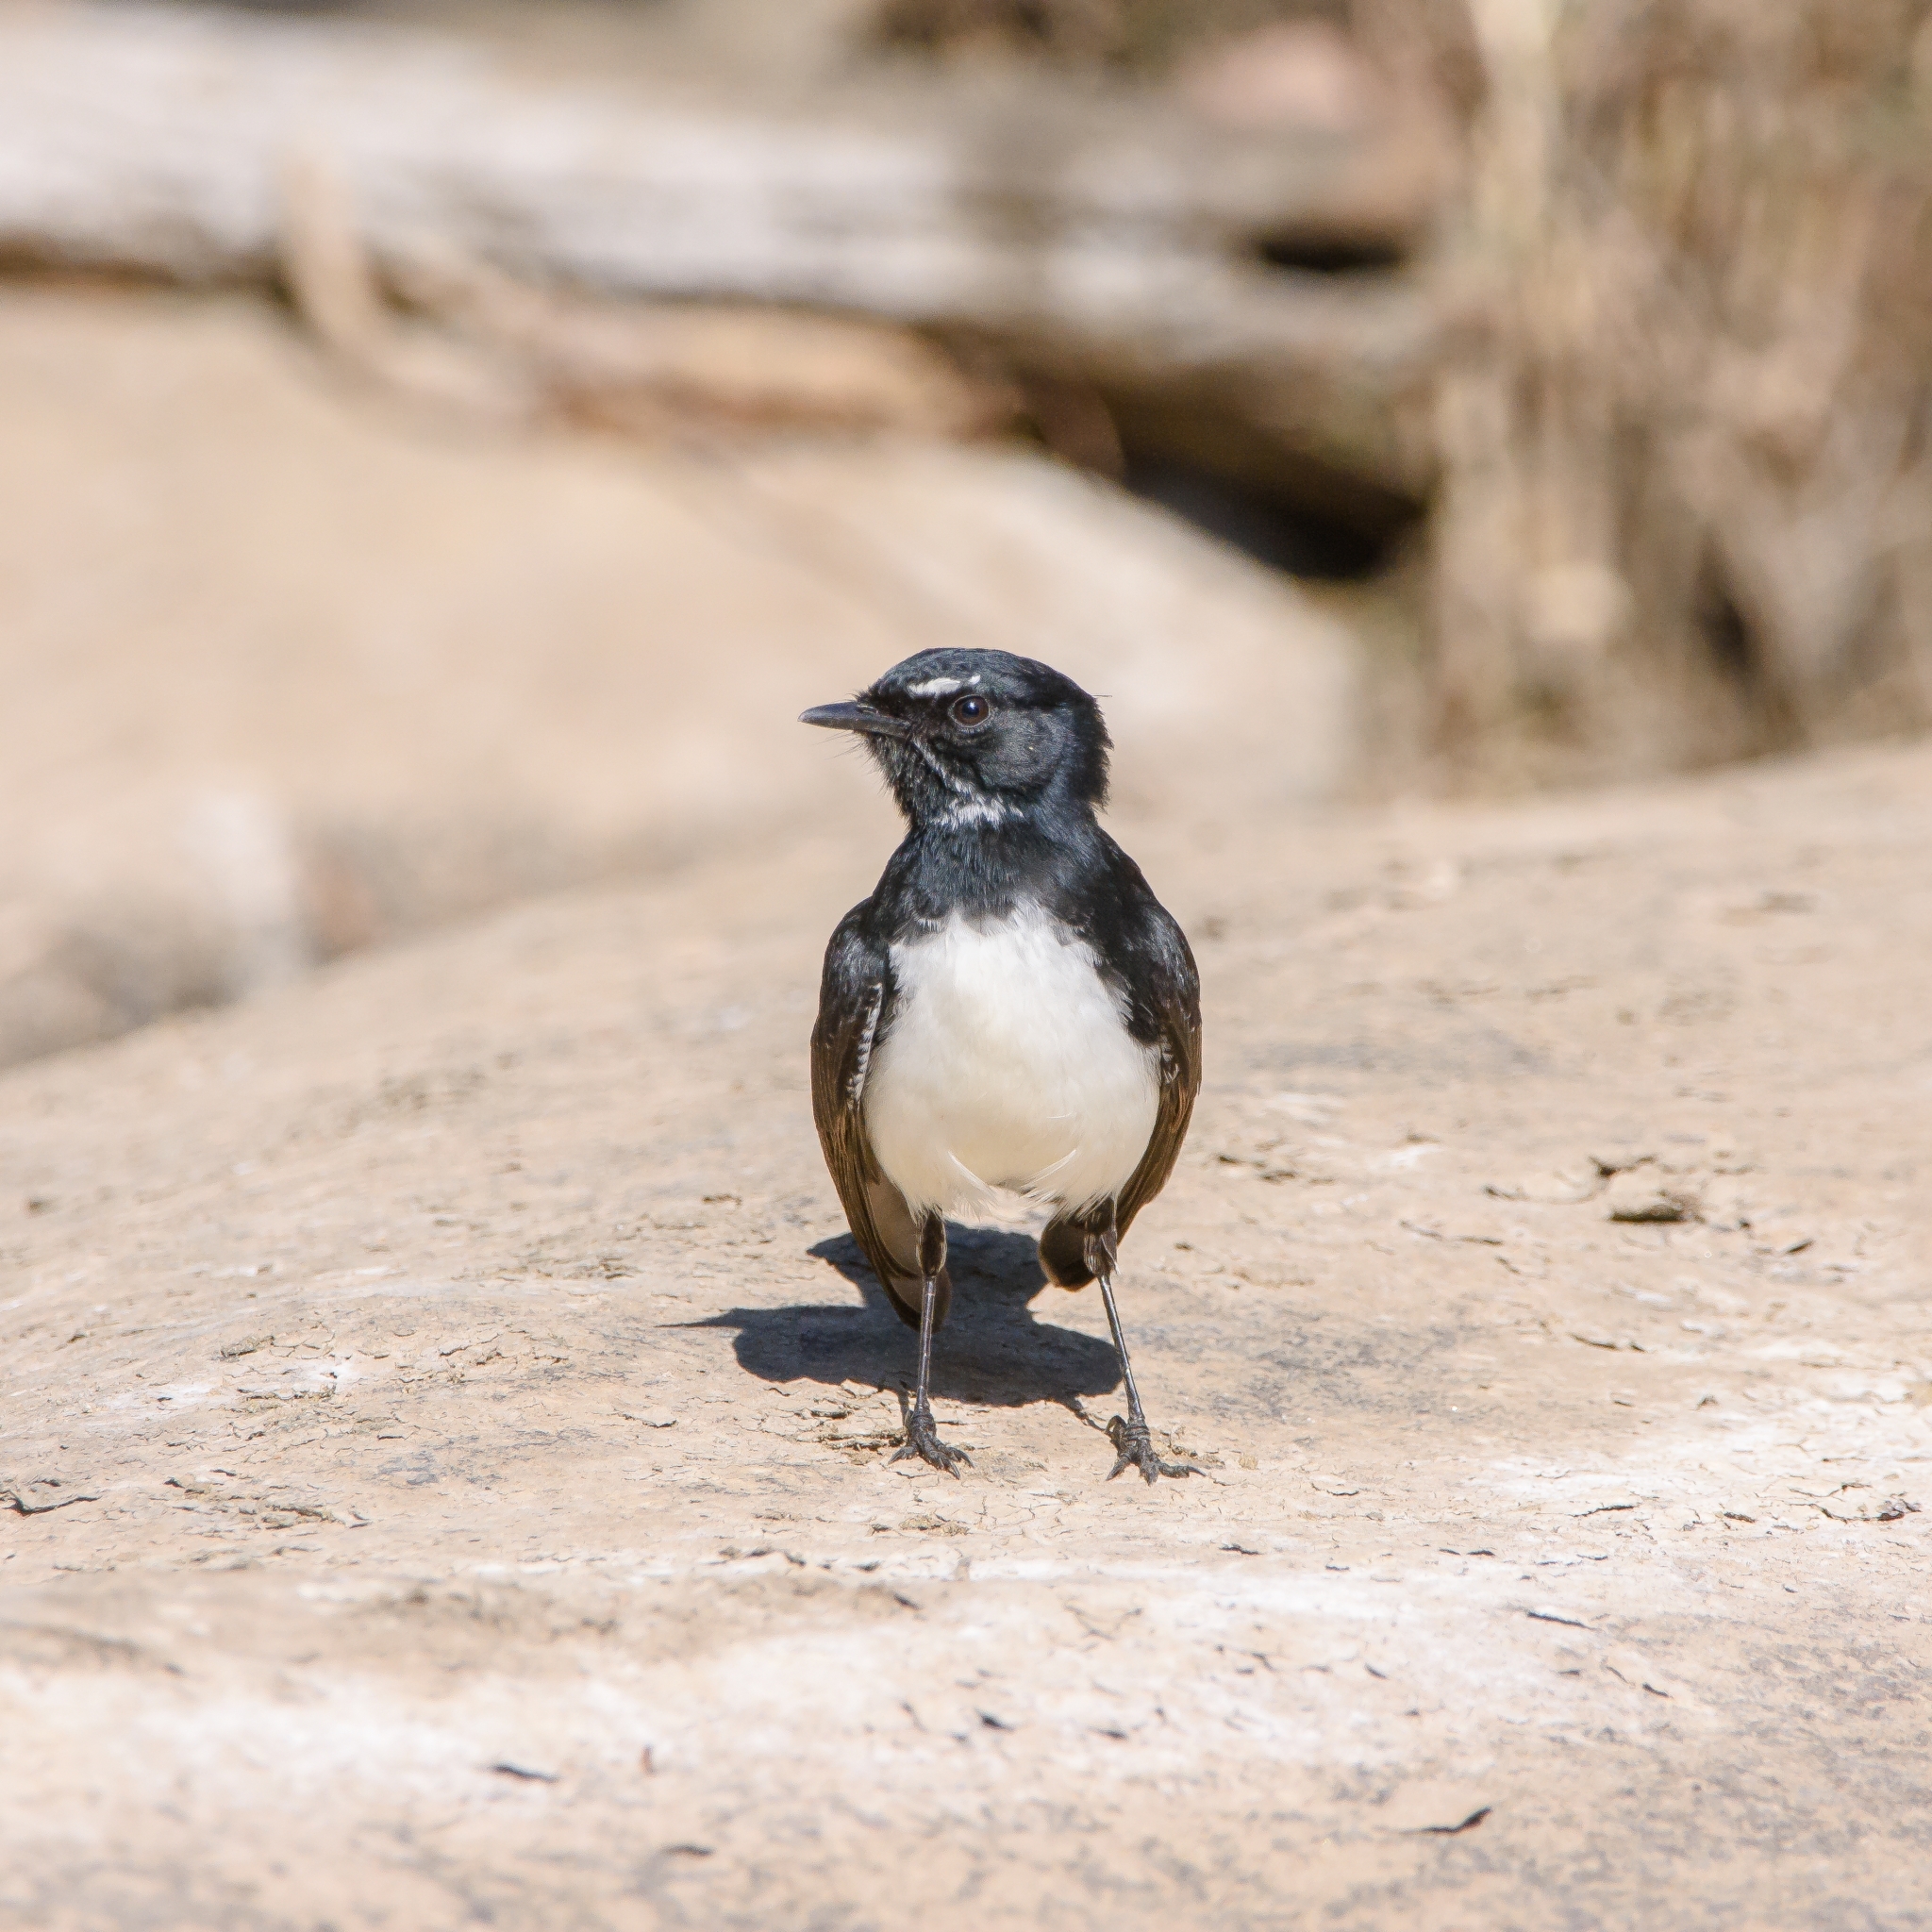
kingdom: Animalia
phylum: Chordata
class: Aves
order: Passeriformes
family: Rhipiduridae
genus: Rhipidura
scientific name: Rhipidura leucophrys
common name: Willie wagtail
